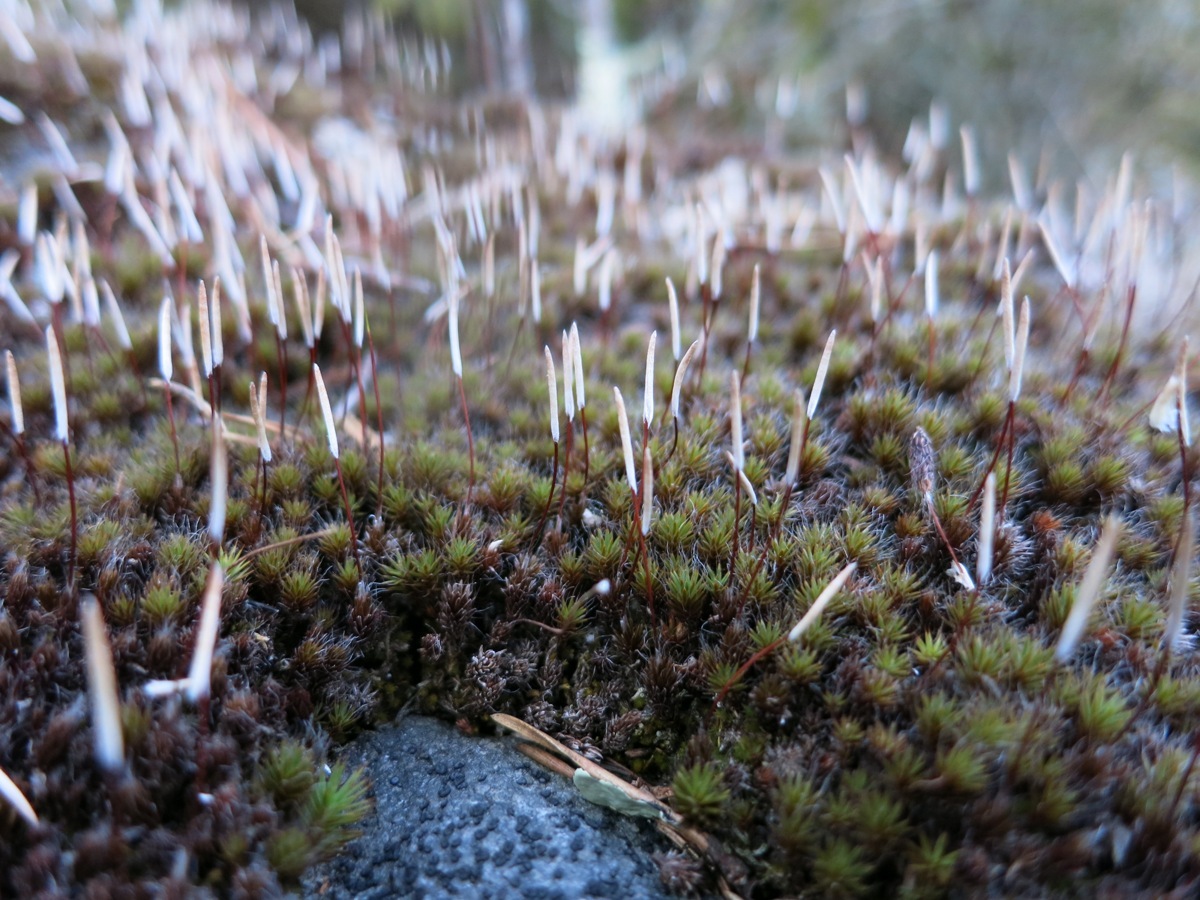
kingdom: Plantae
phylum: Bryophyta
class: Polytrichopsida
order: Polytrichales
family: Polytrichaceae
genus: Polytrichum
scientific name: Polytrichum piliferum
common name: Bristly haircap
